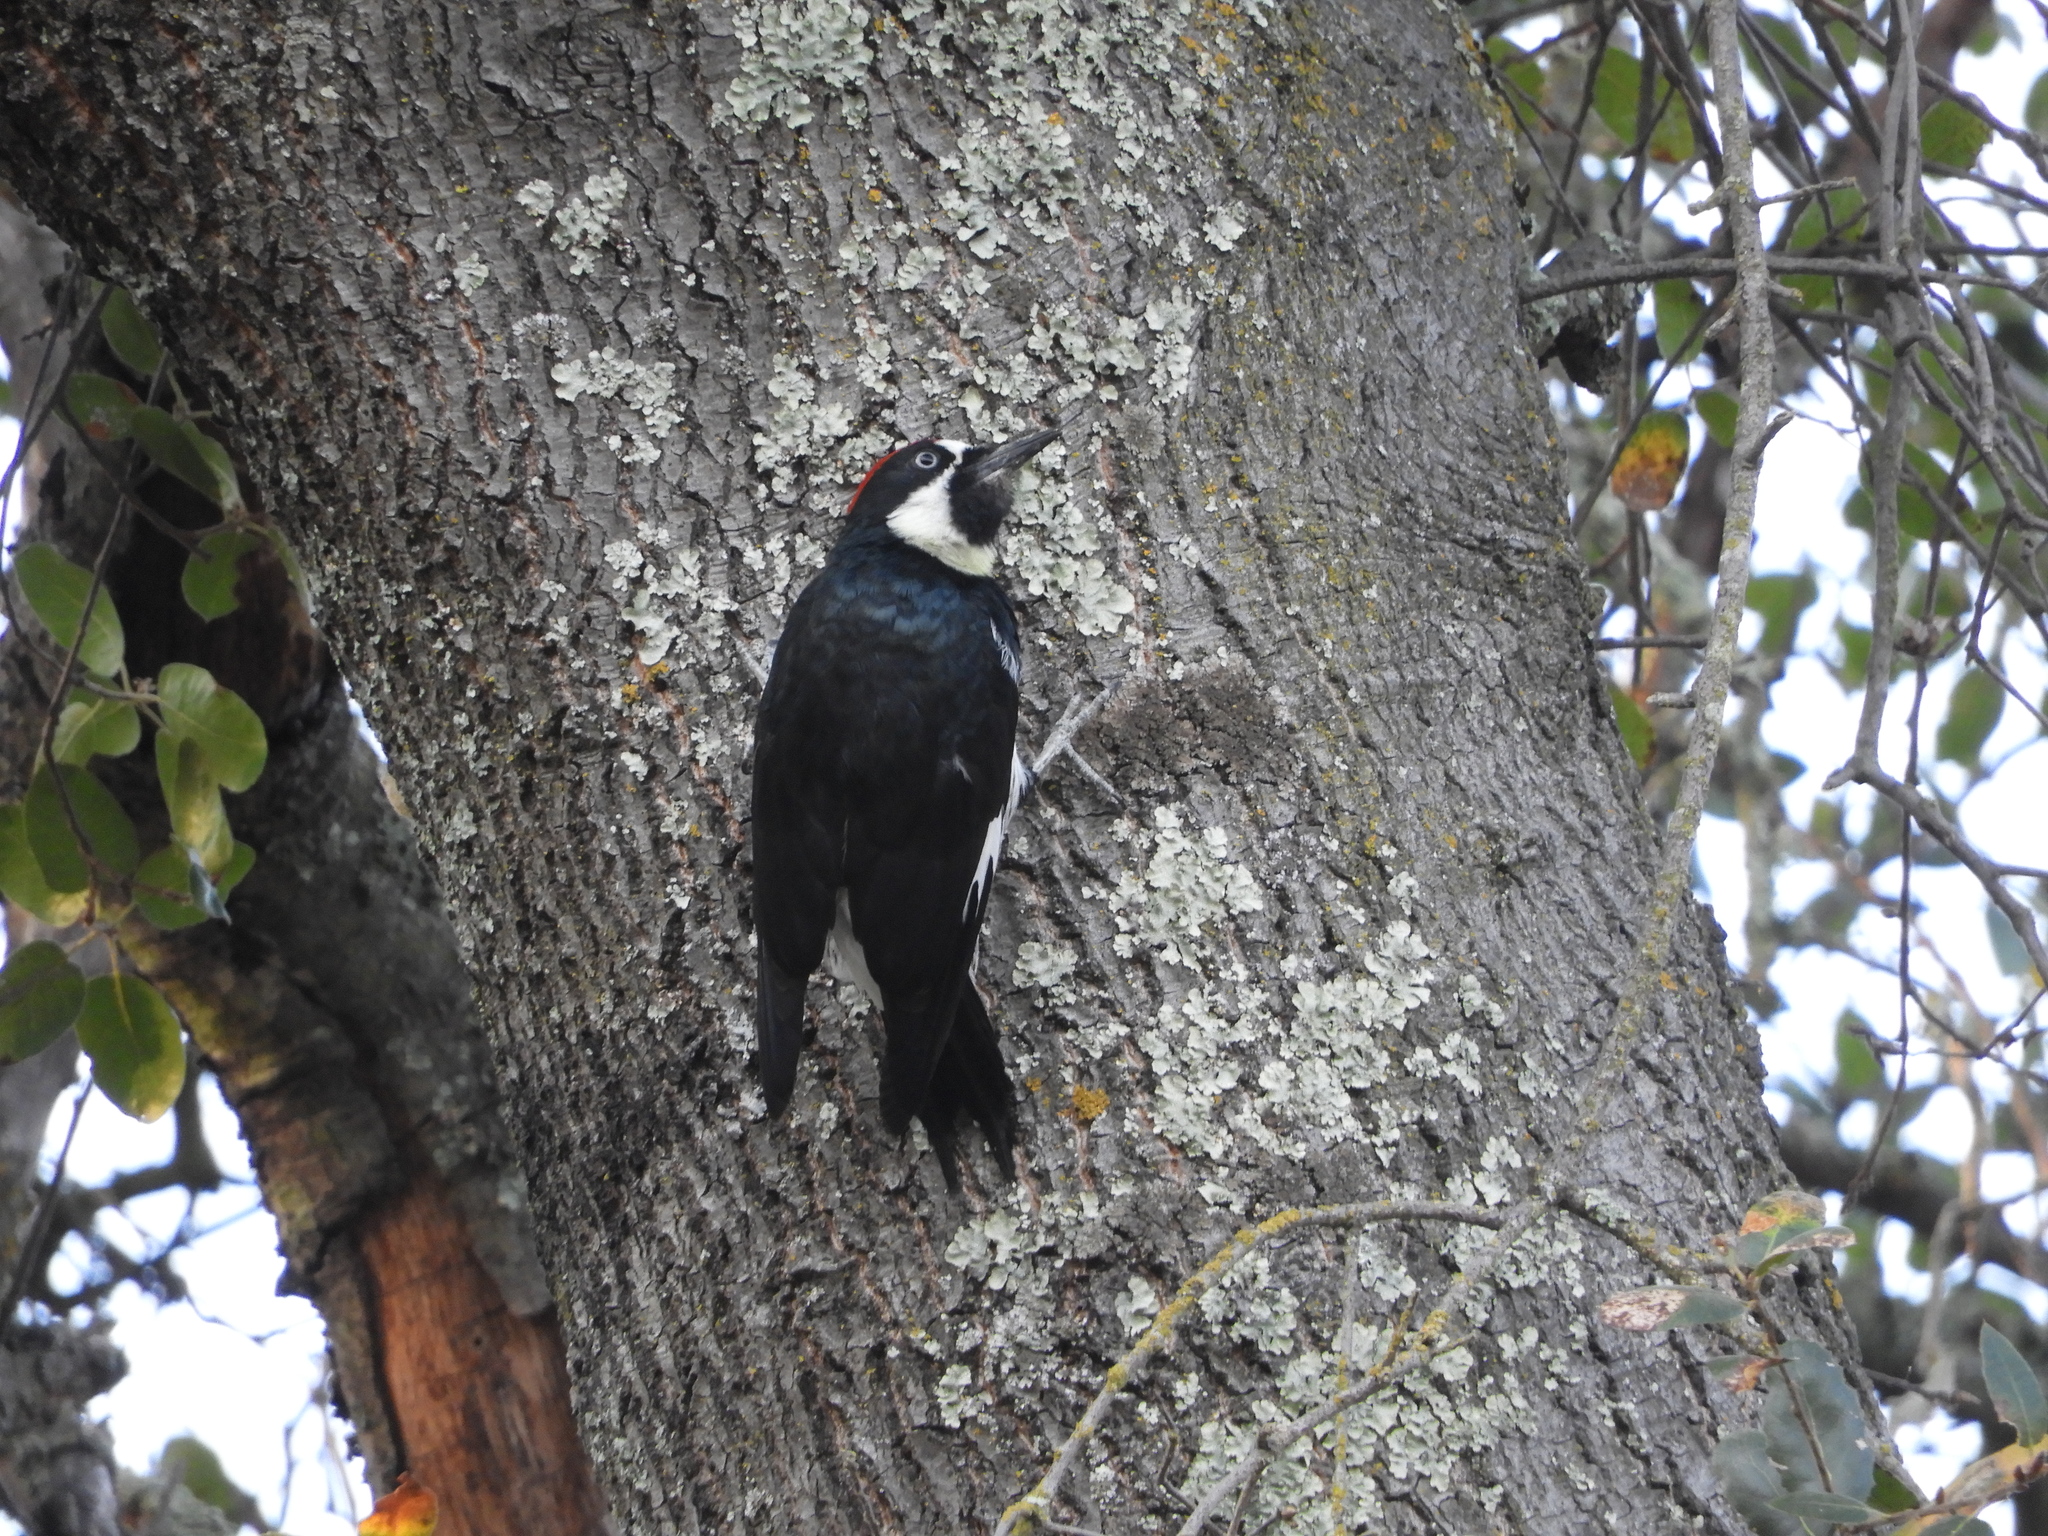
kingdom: Animalia
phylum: Chordata
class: Aves
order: Piciformes
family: Picidae
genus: Melanerpes
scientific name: Melanerpes formicivorus
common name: Acorn woodpecker
